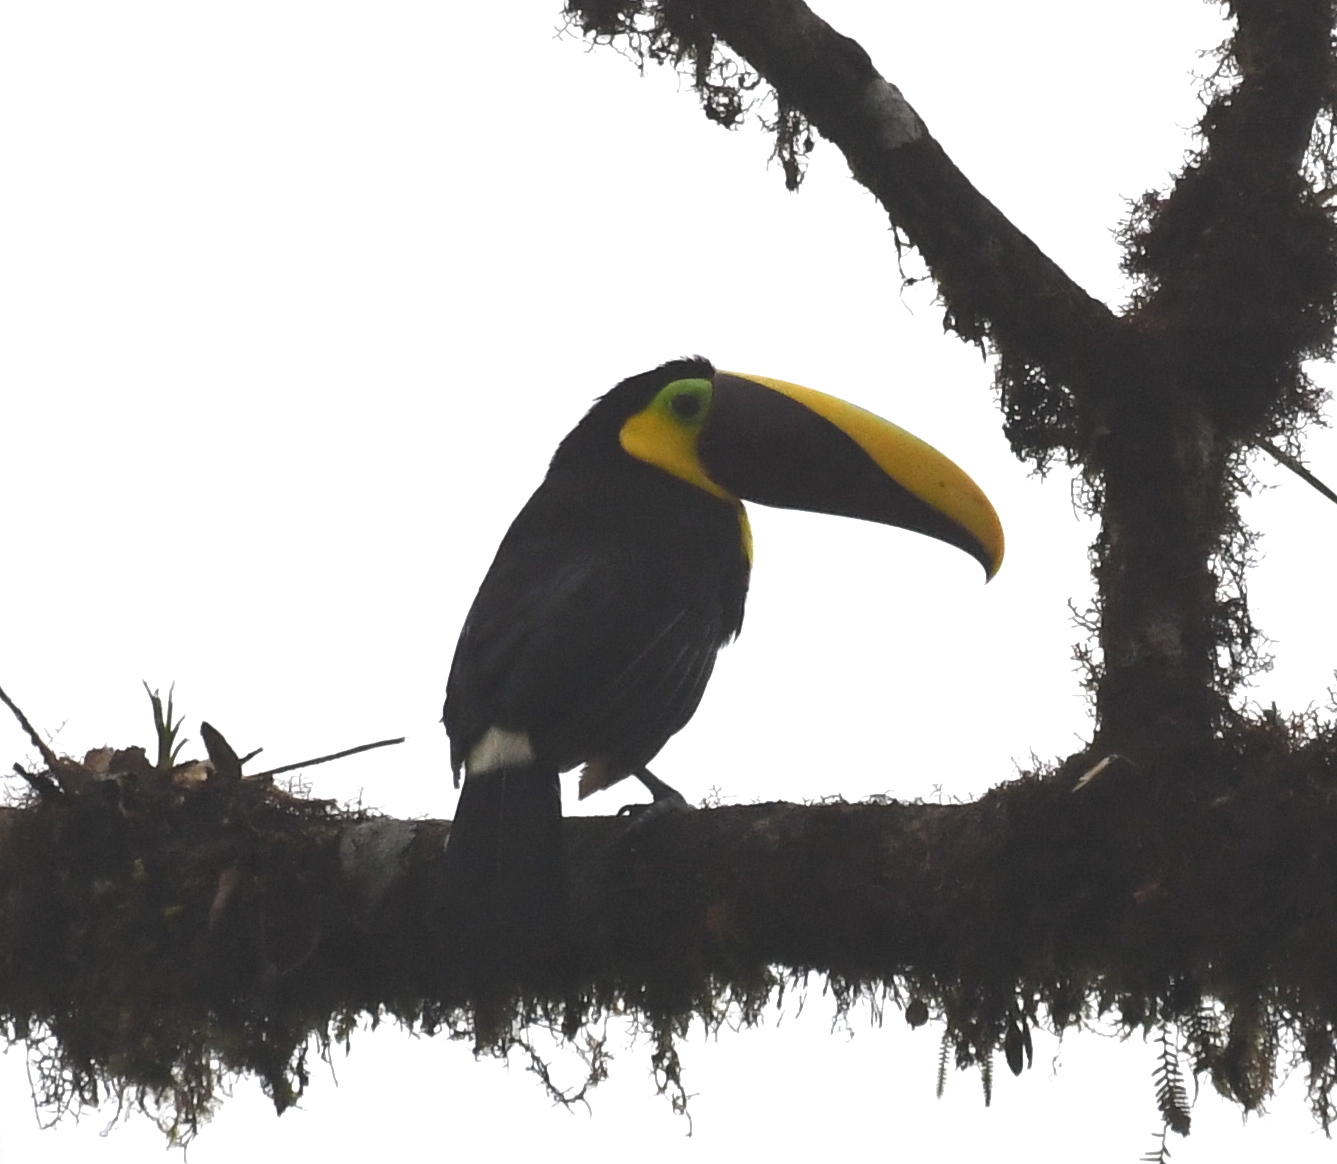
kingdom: Animalia
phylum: Chordata
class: Aves
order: Piciformes
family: Ramphastidae
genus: Ramphastos
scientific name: Ramphastos brevis
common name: Choco toucan
